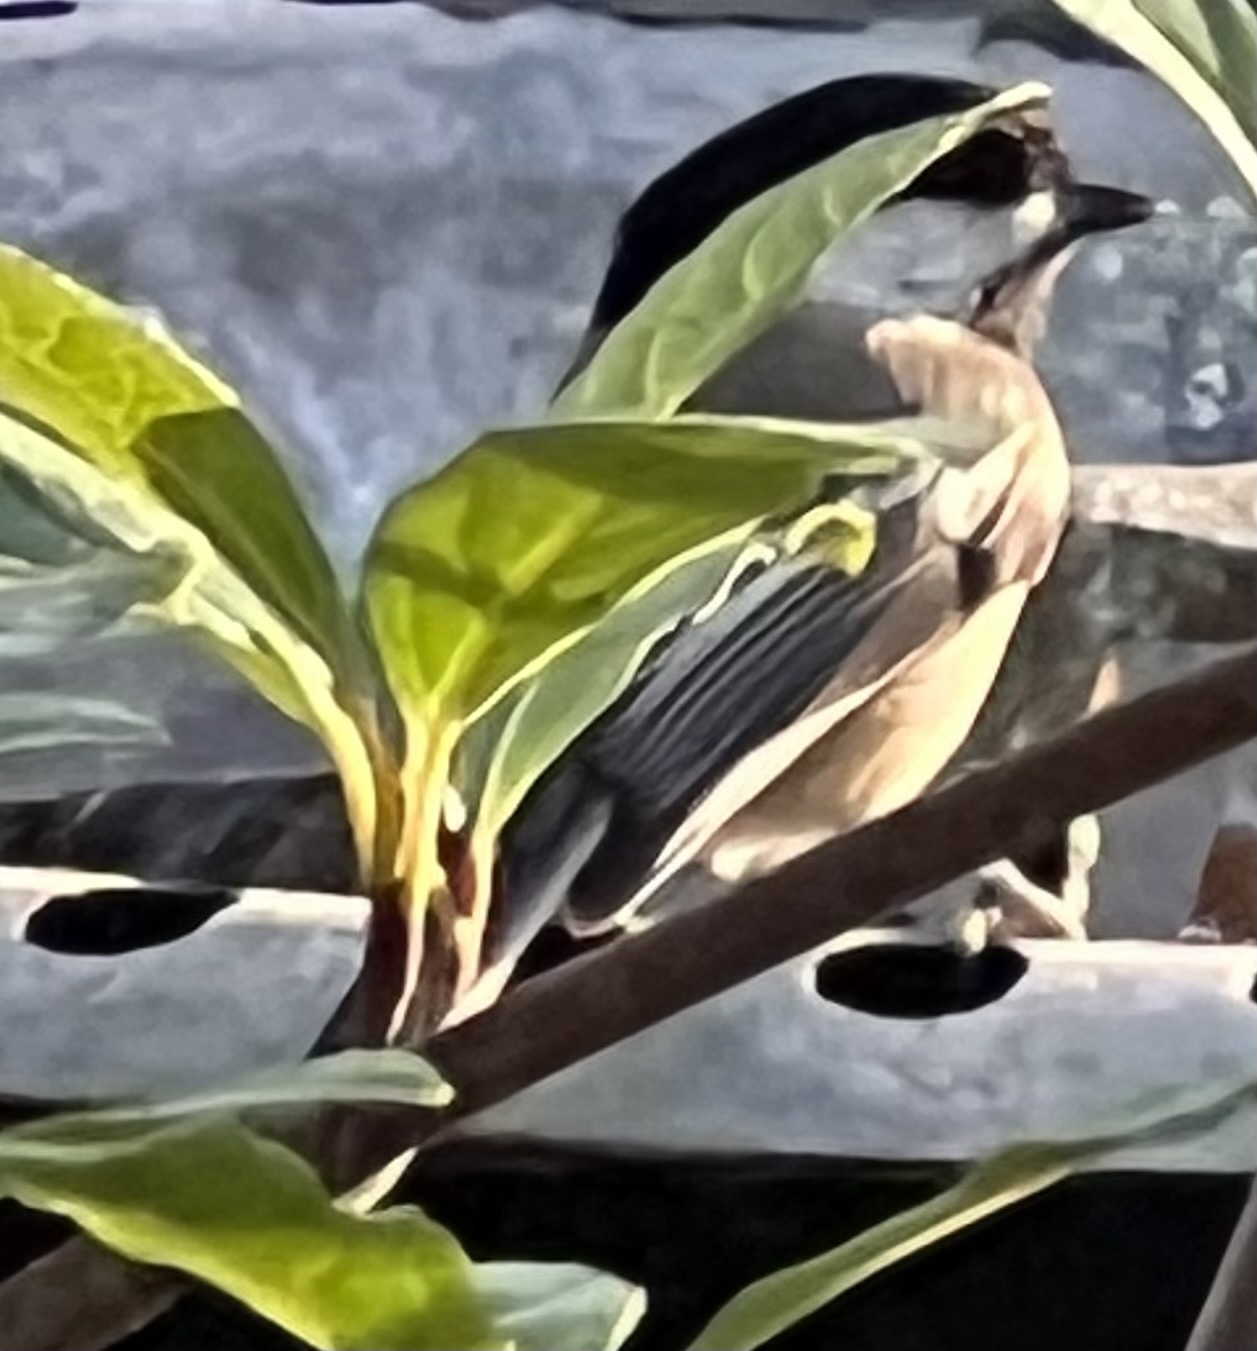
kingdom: Animalia
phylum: Chordata
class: Aves
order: Passeriformes
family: Paridae
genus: Poecile
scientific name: Poecile atricapillus
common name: Black-capped chickadee
